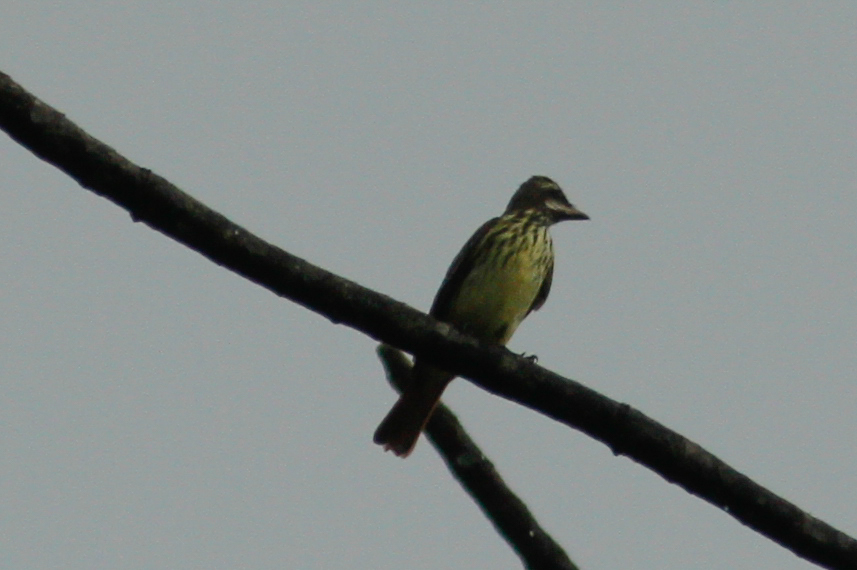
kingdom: Animalia
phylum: Chordata
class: Aves
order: Passeriformes
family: Tyrannidae
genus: Myiodynastes
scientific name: Myiodynastes luteiventris
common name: Sulphur-bellied flycatcher
